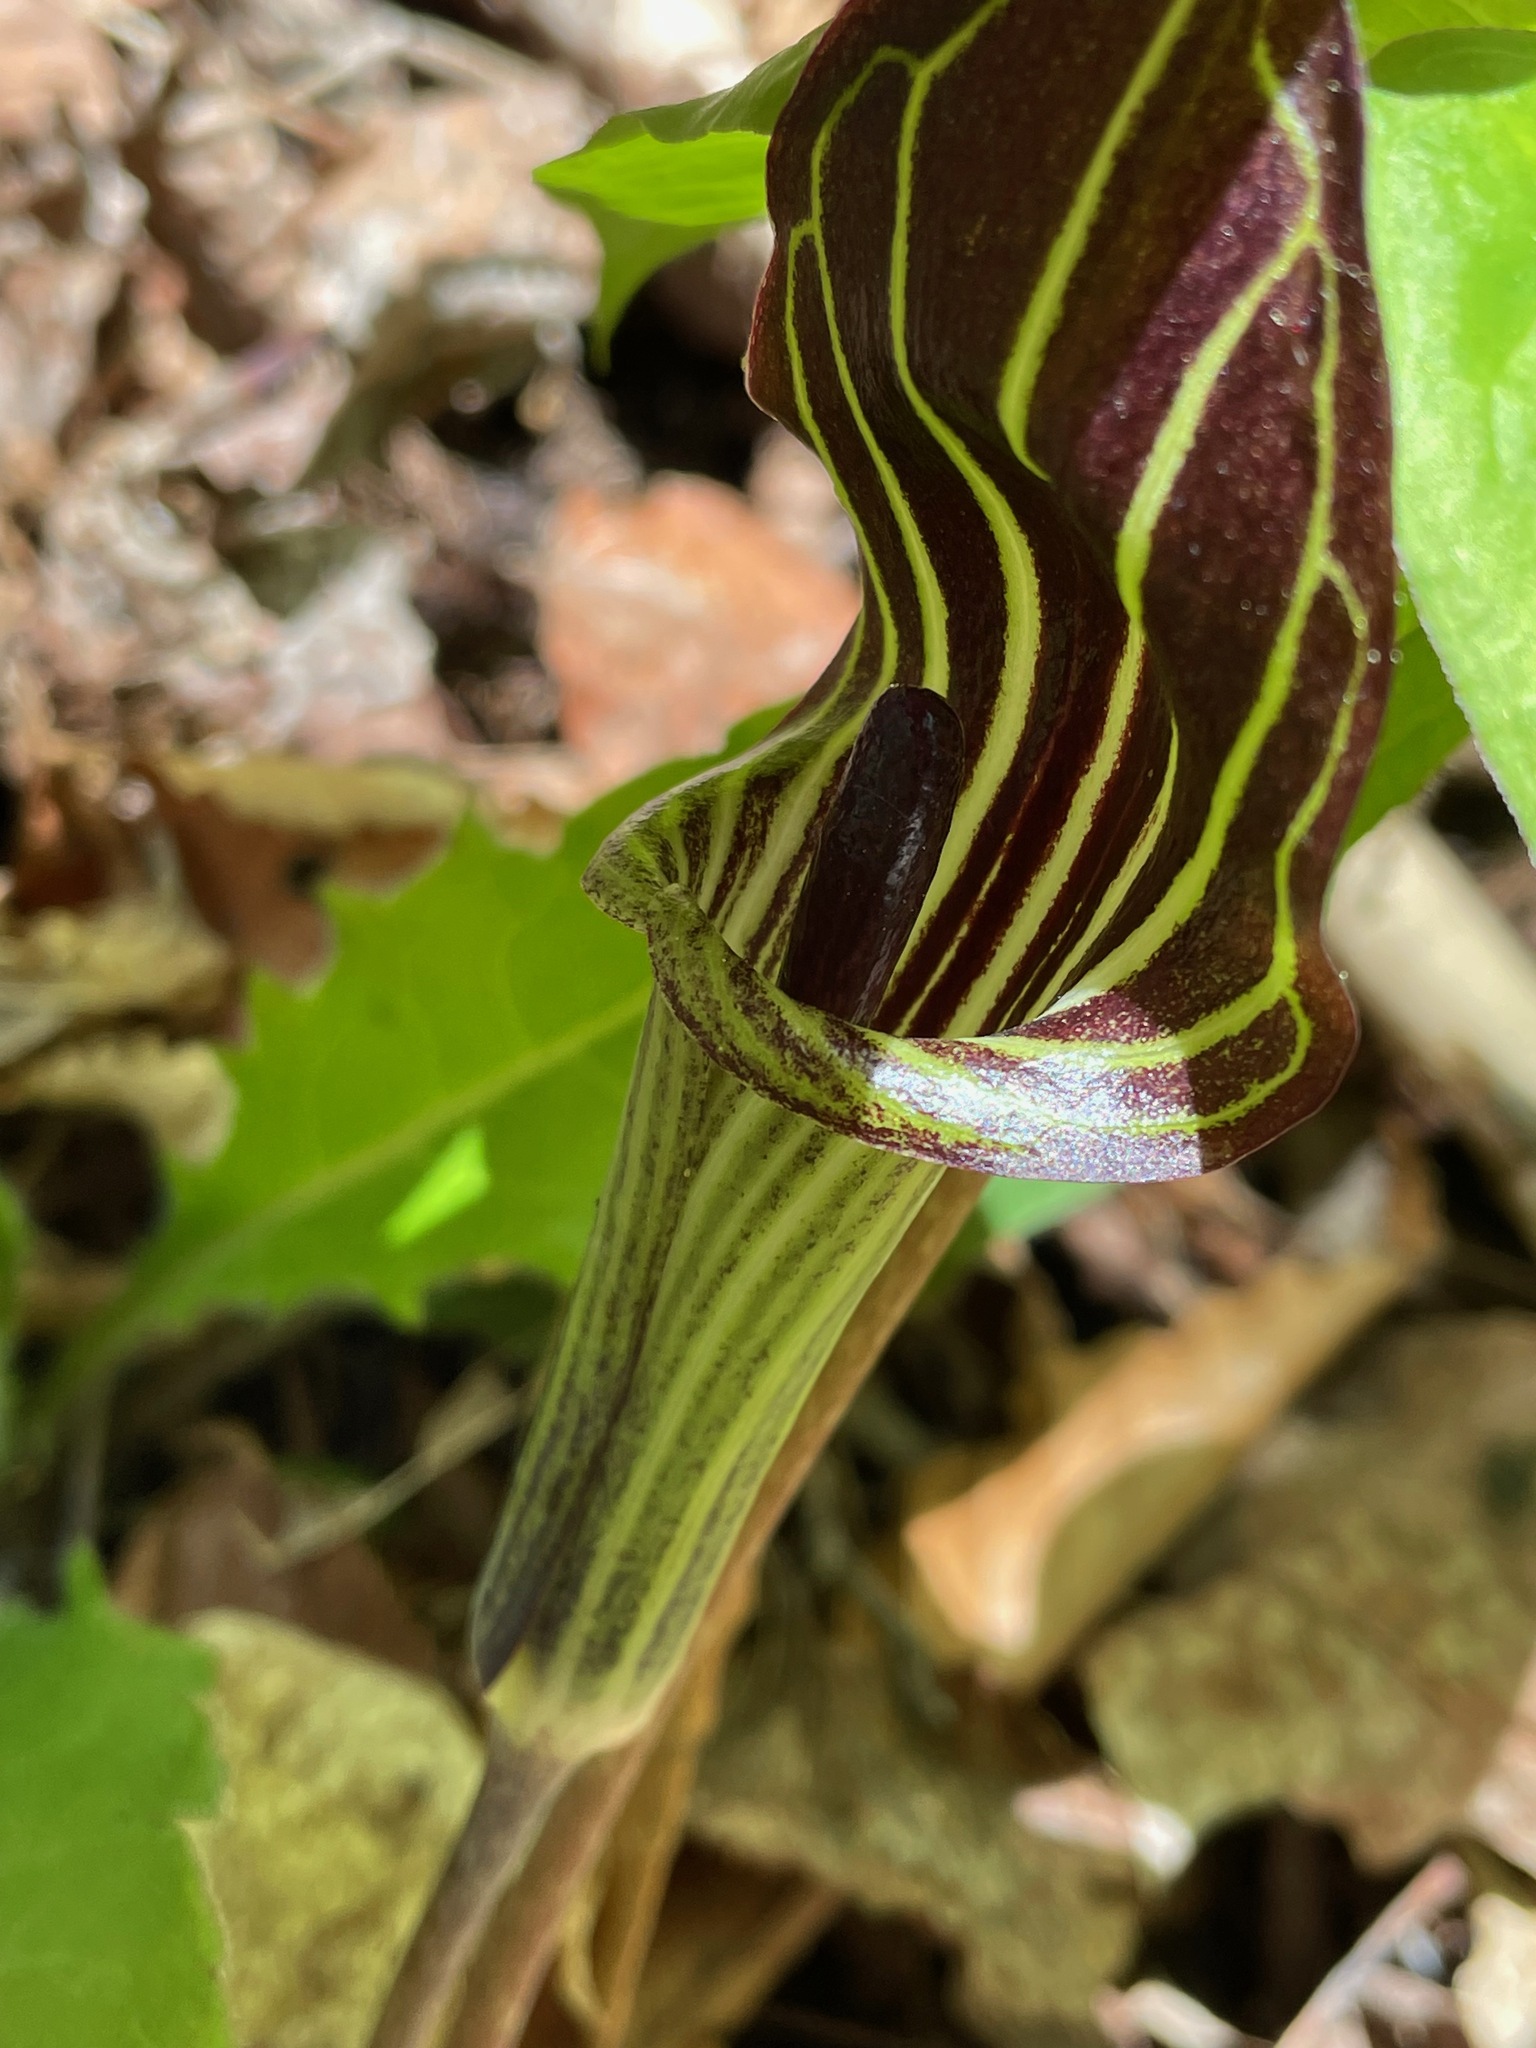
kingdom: Plantae
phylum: Tracheophyta
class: Liliopsida
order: Alismatales
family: Araceae
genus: Arisaema
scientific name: Arisaema triphyllum
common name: Jack-in-the-pulpit
